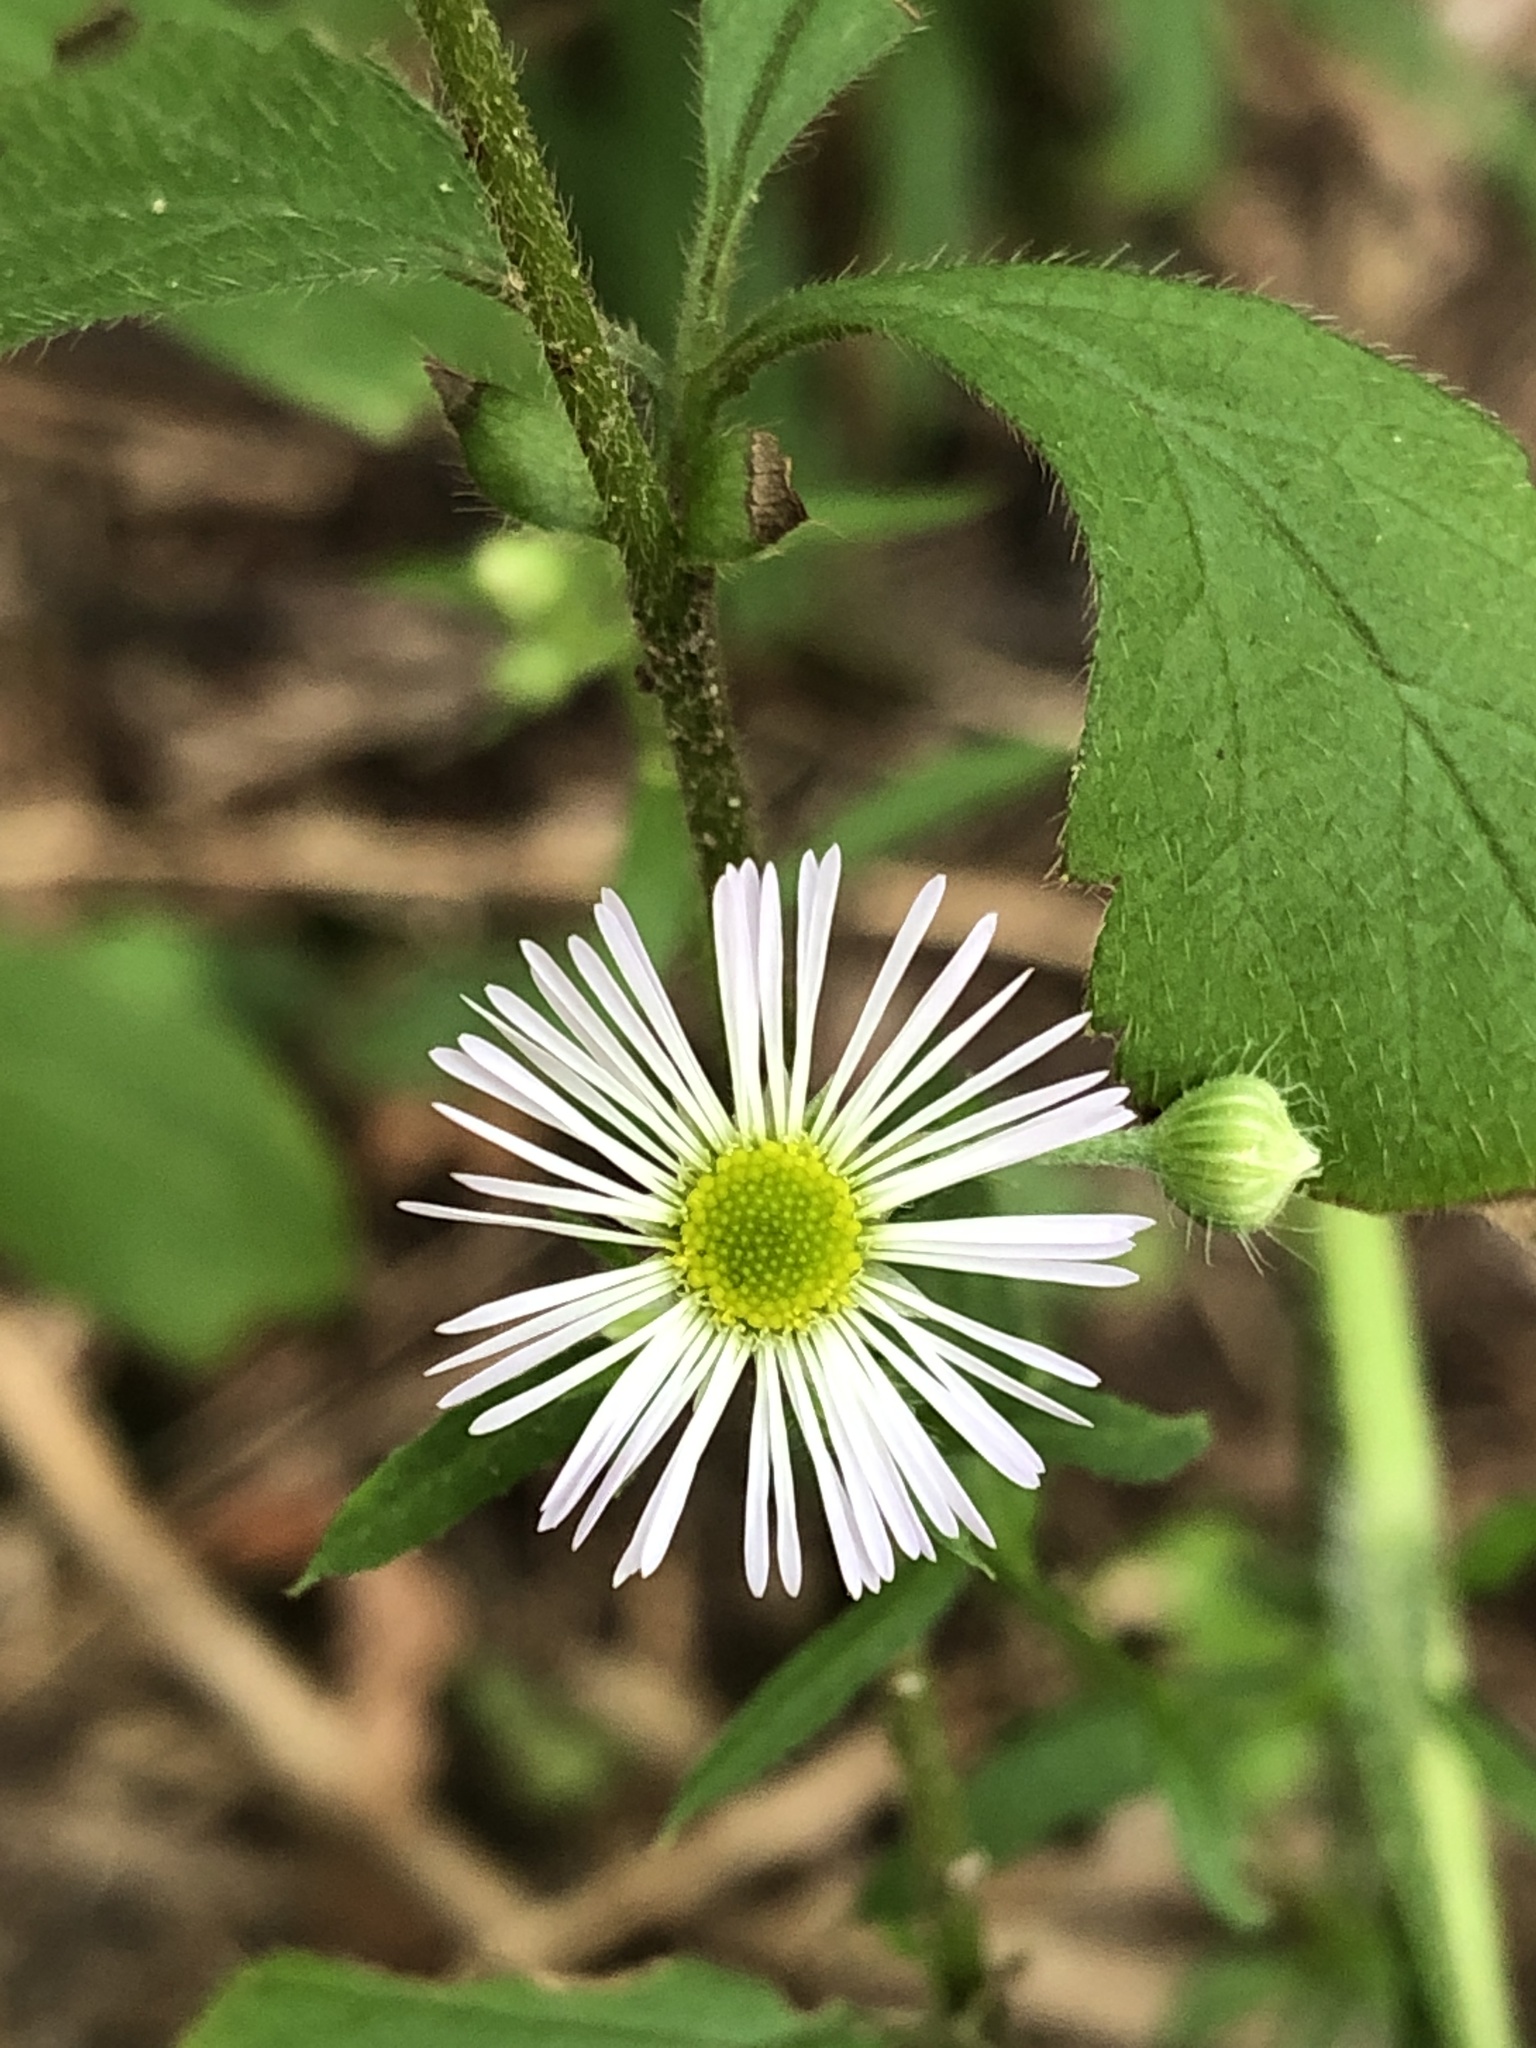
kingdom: Plantae
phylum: Tracheophyta
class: Magnoliopsida
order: Asterales
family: Asteraceae
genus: Erigeron
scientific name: Erigeron annuus
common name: Tall fleabane
